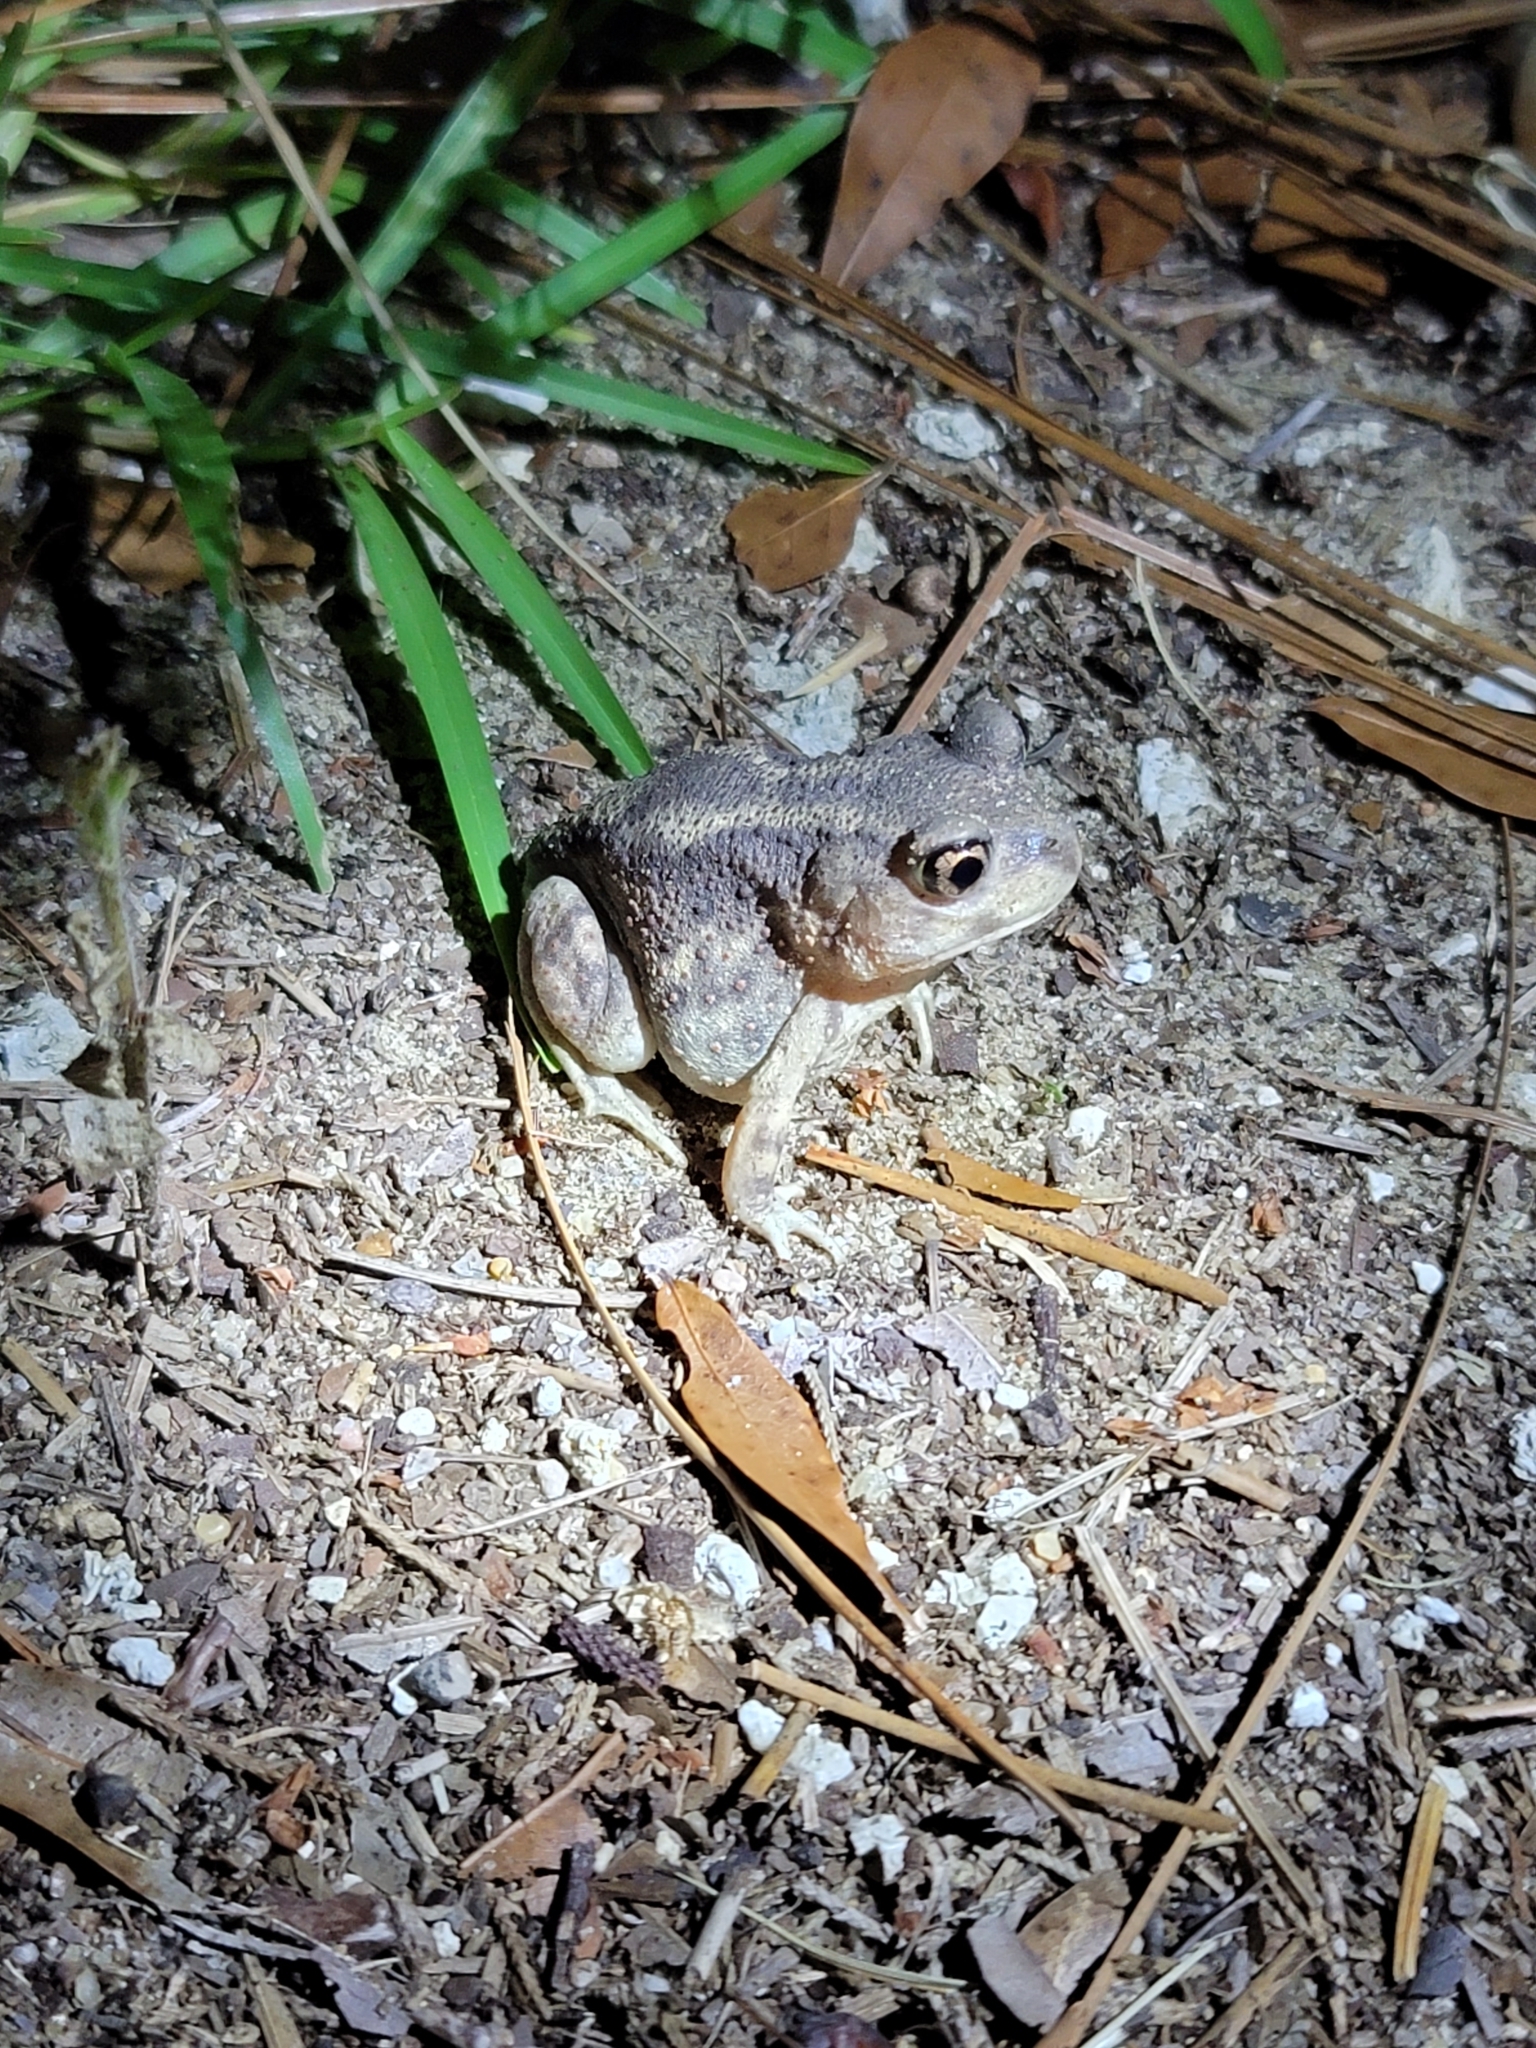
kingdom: Animalia
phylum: Chordata
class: Amphibia
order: Anura
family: Scaphiopodidae
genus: Scaphiopus
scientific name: Scaphiopus holbrookii
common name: Eastern spadefoot toad
